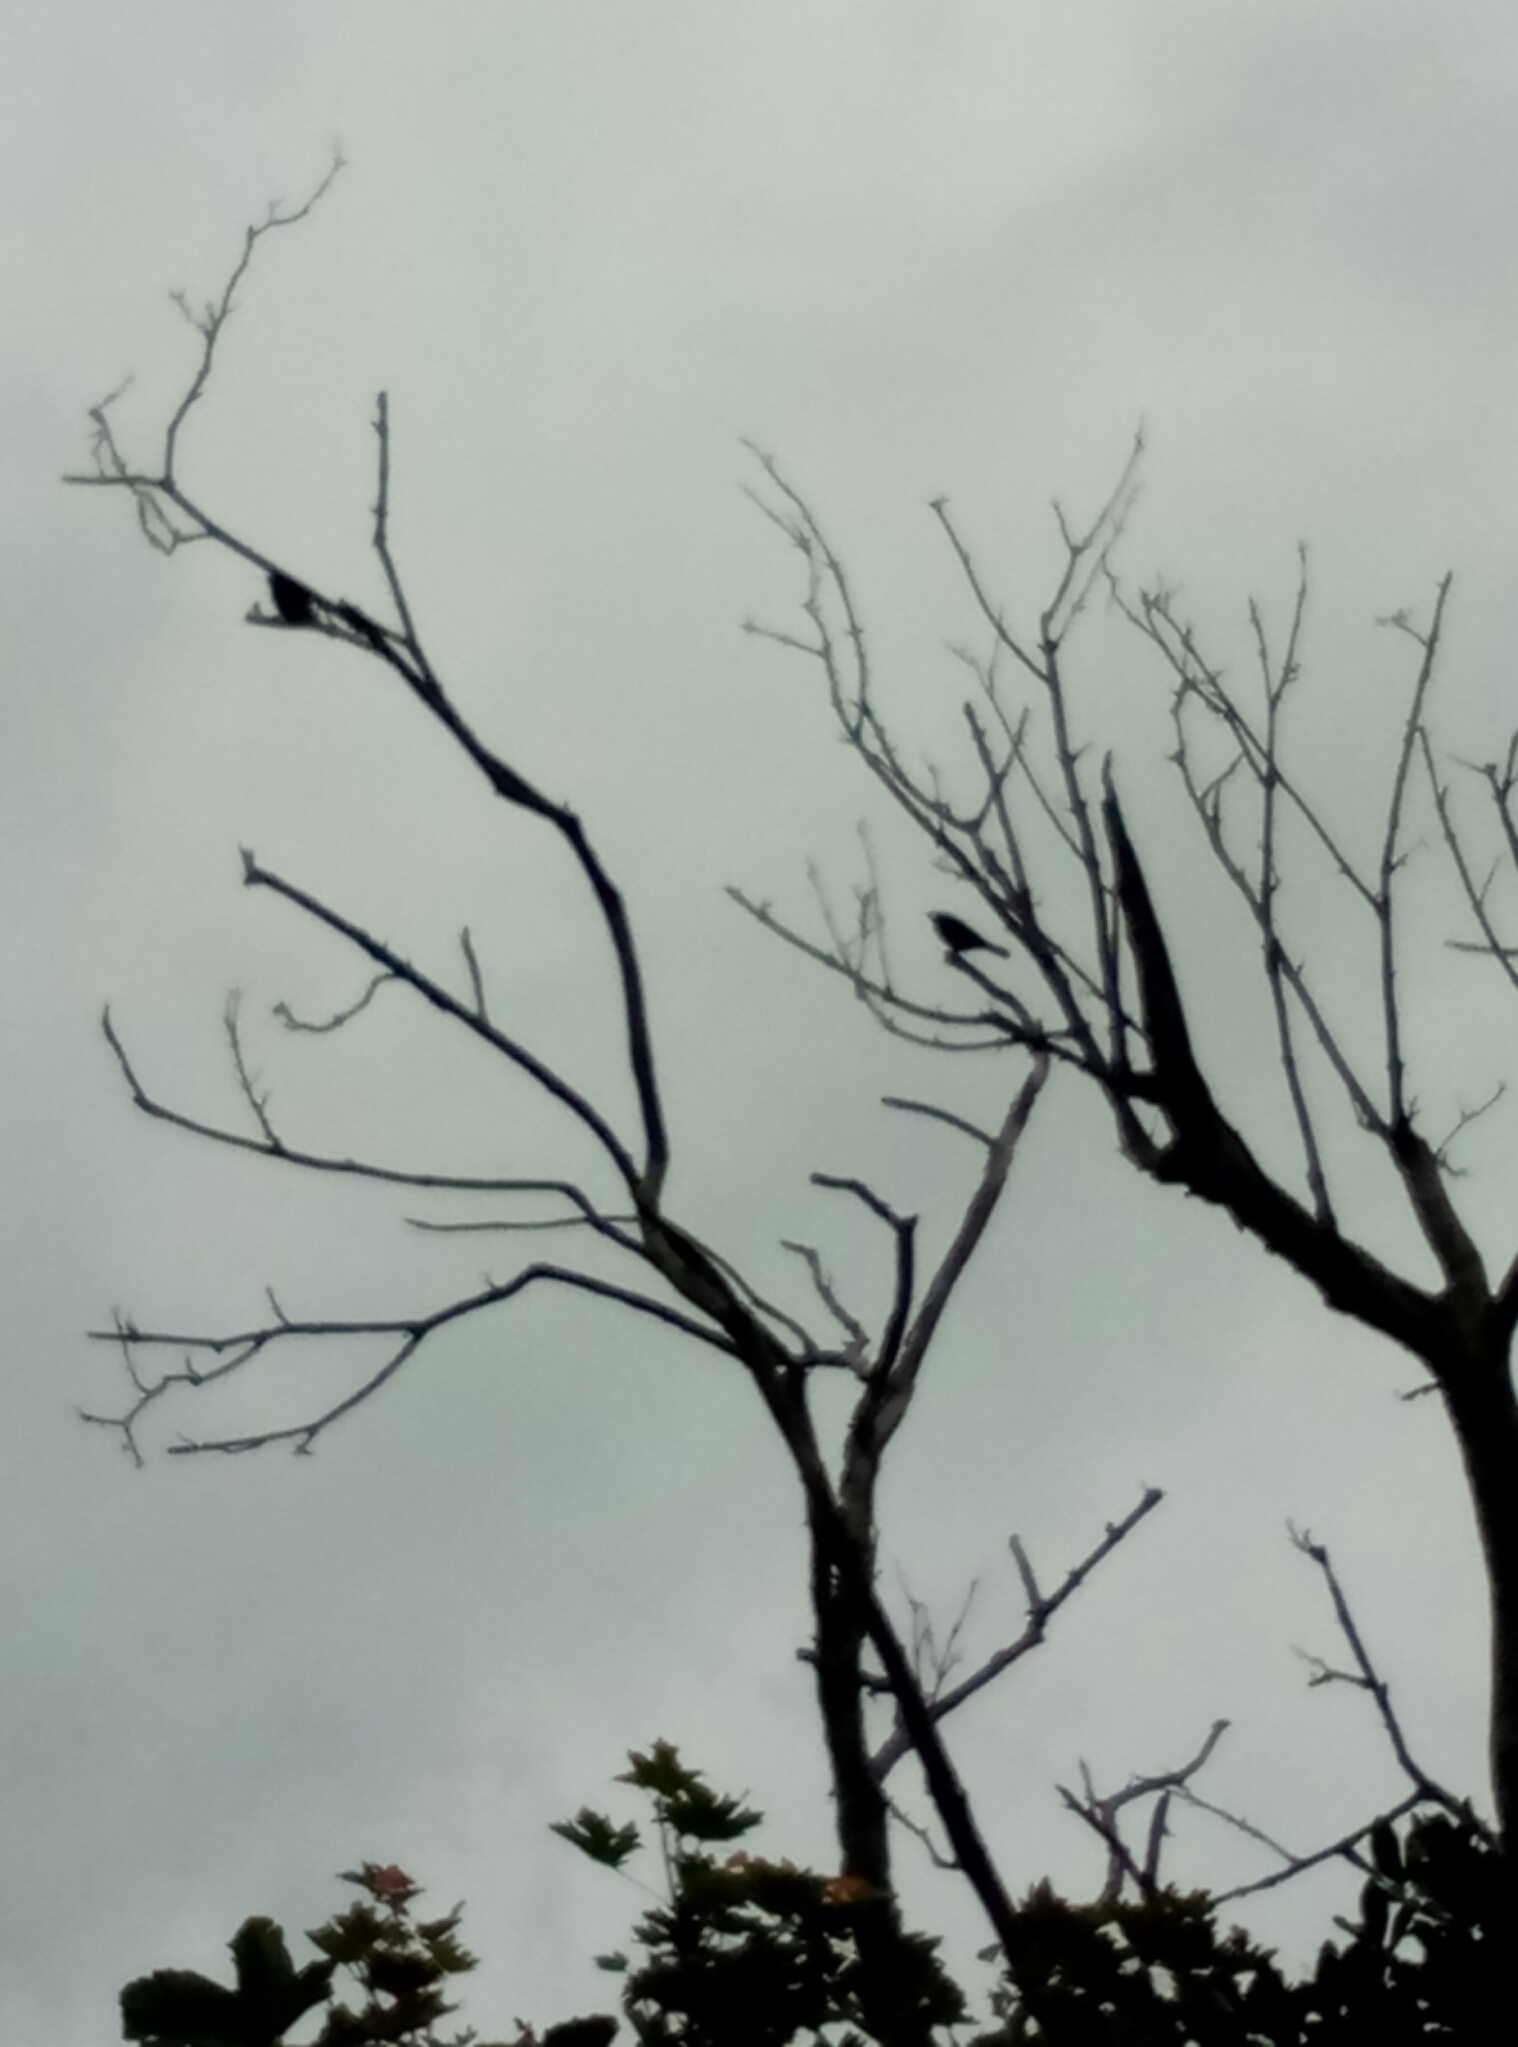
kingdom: Animalia
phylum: Chordata
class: Aves
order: Passeriformes
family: Meliphagidae
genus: Prosthemadera
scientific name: Prosthemadera novaeseelandiae
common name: Tui
